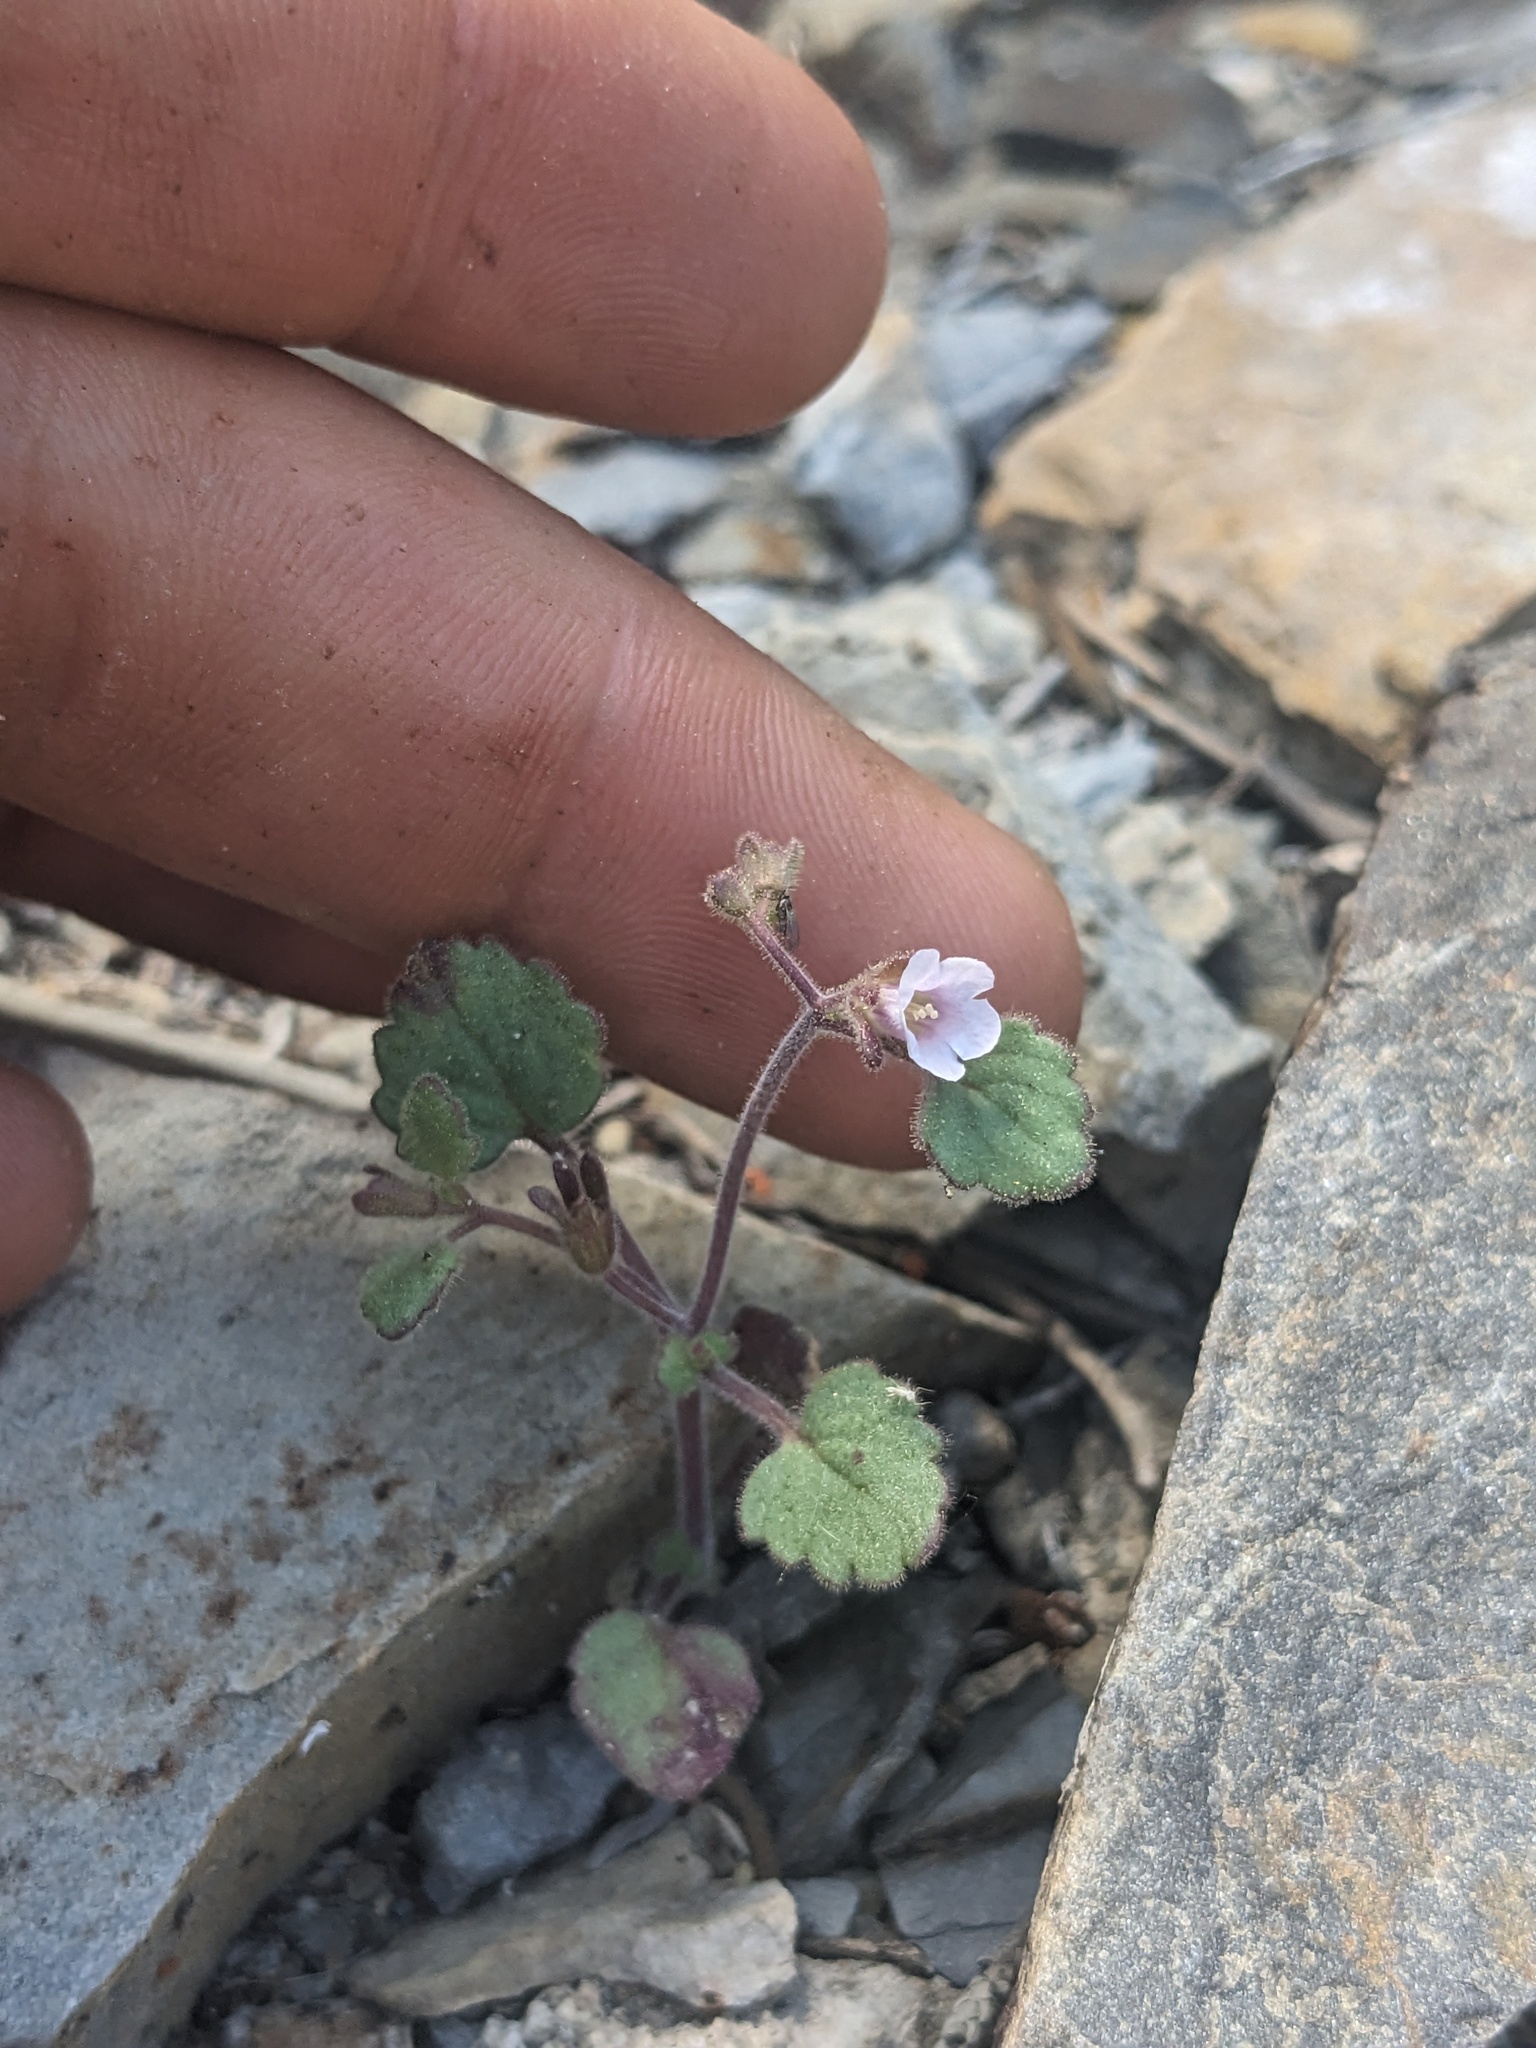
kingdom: Plantae
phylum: Tracheophyta
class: Magnoliopsida
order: Boraginales
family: Hydrophyllaceae
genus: Phacelia
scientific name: Phacelia peirsoniana
